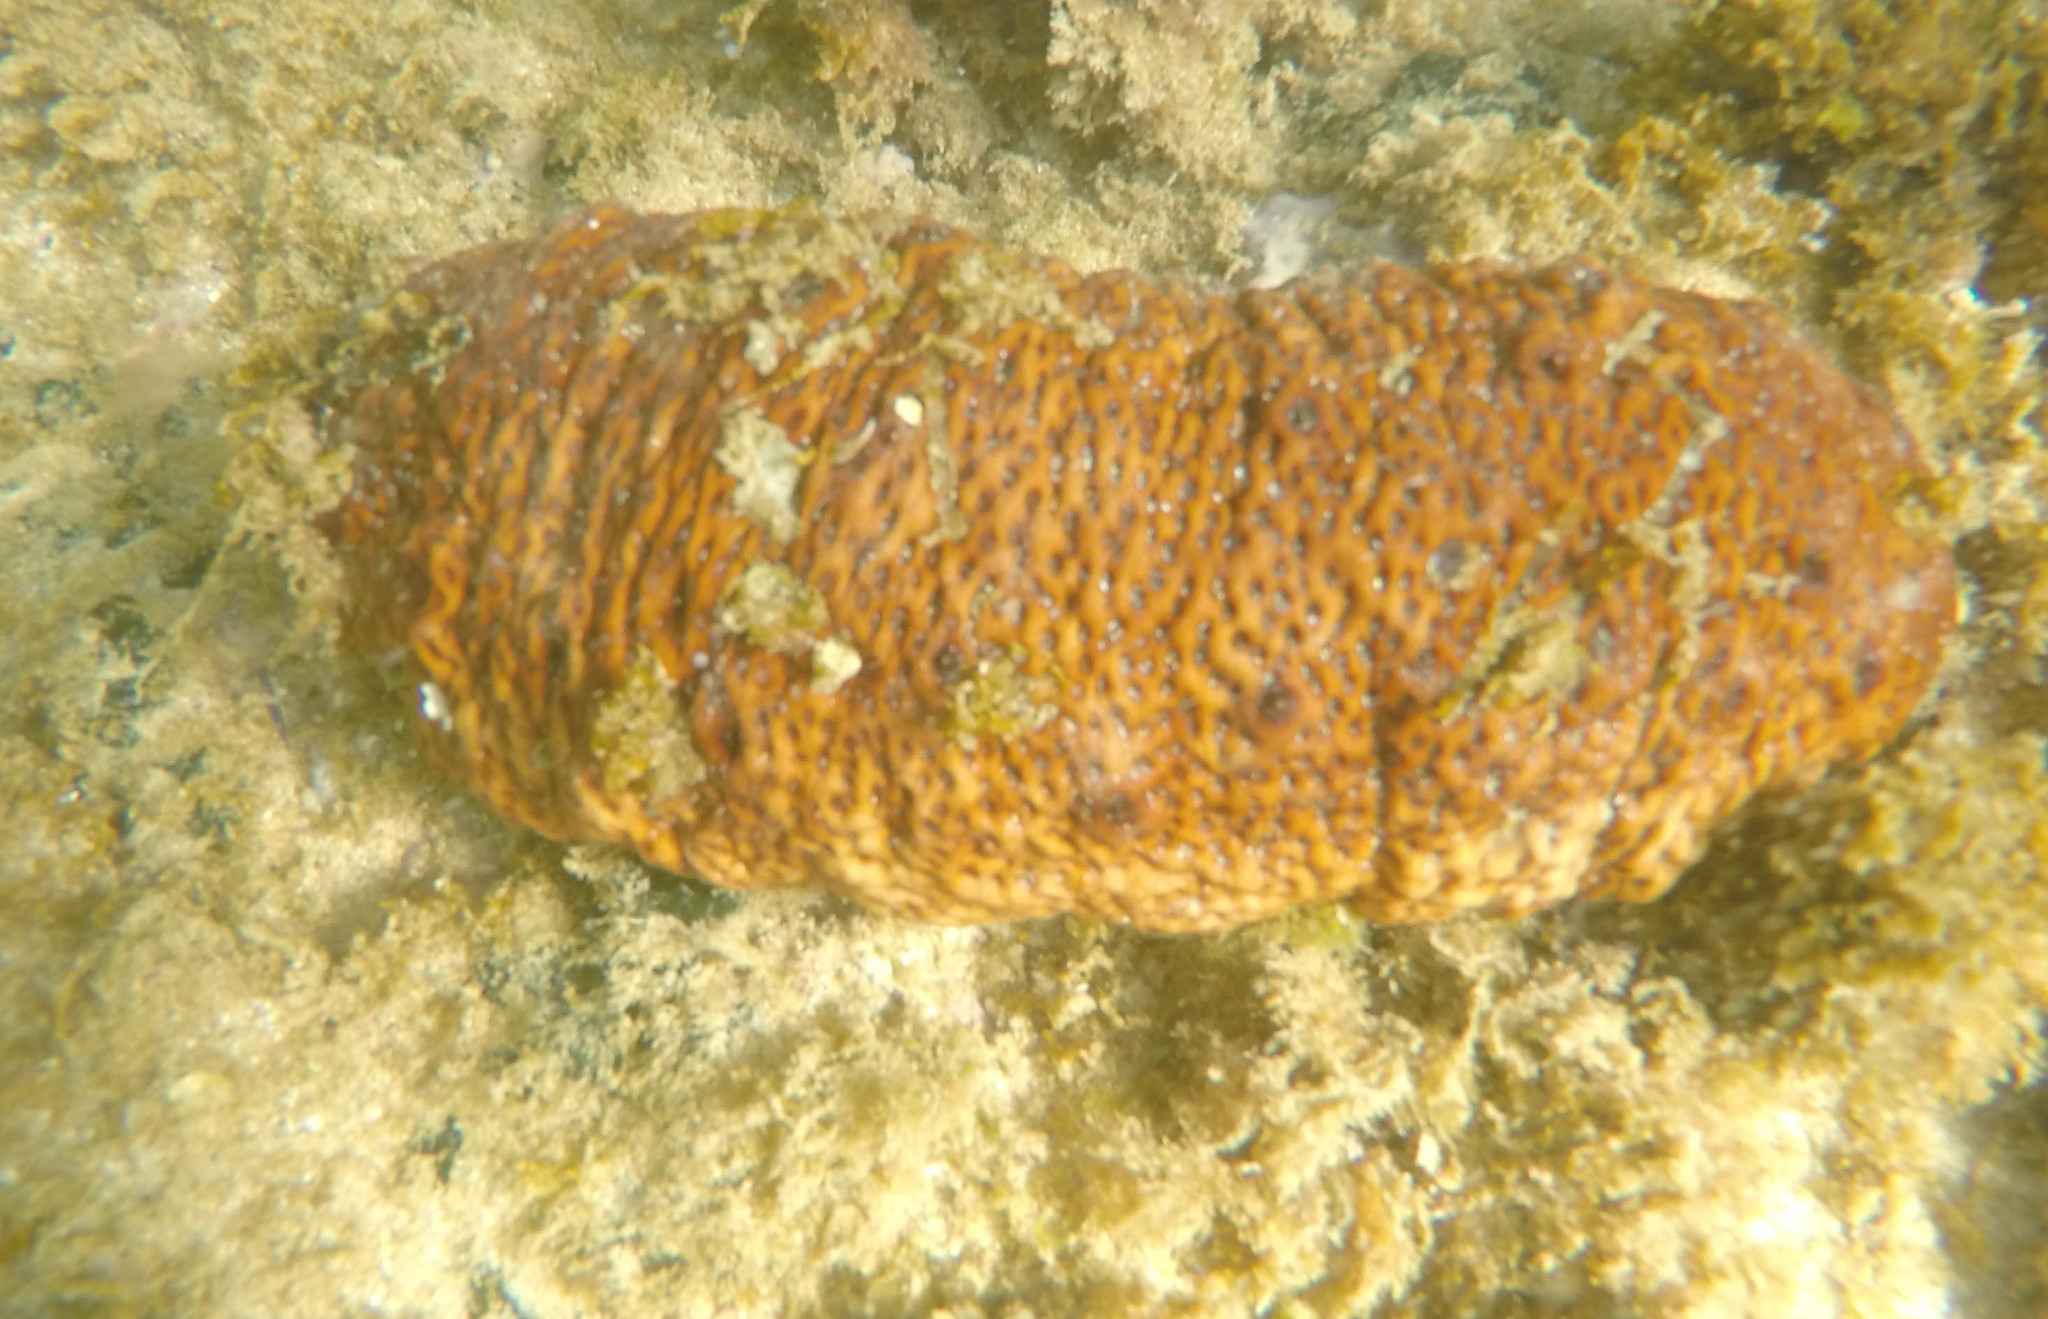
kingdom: Animalia
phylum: Echinodermata
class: Holothuroidea
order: Holothuriida
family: Holothuriidae
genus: Holothuria
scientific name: Holothuria
